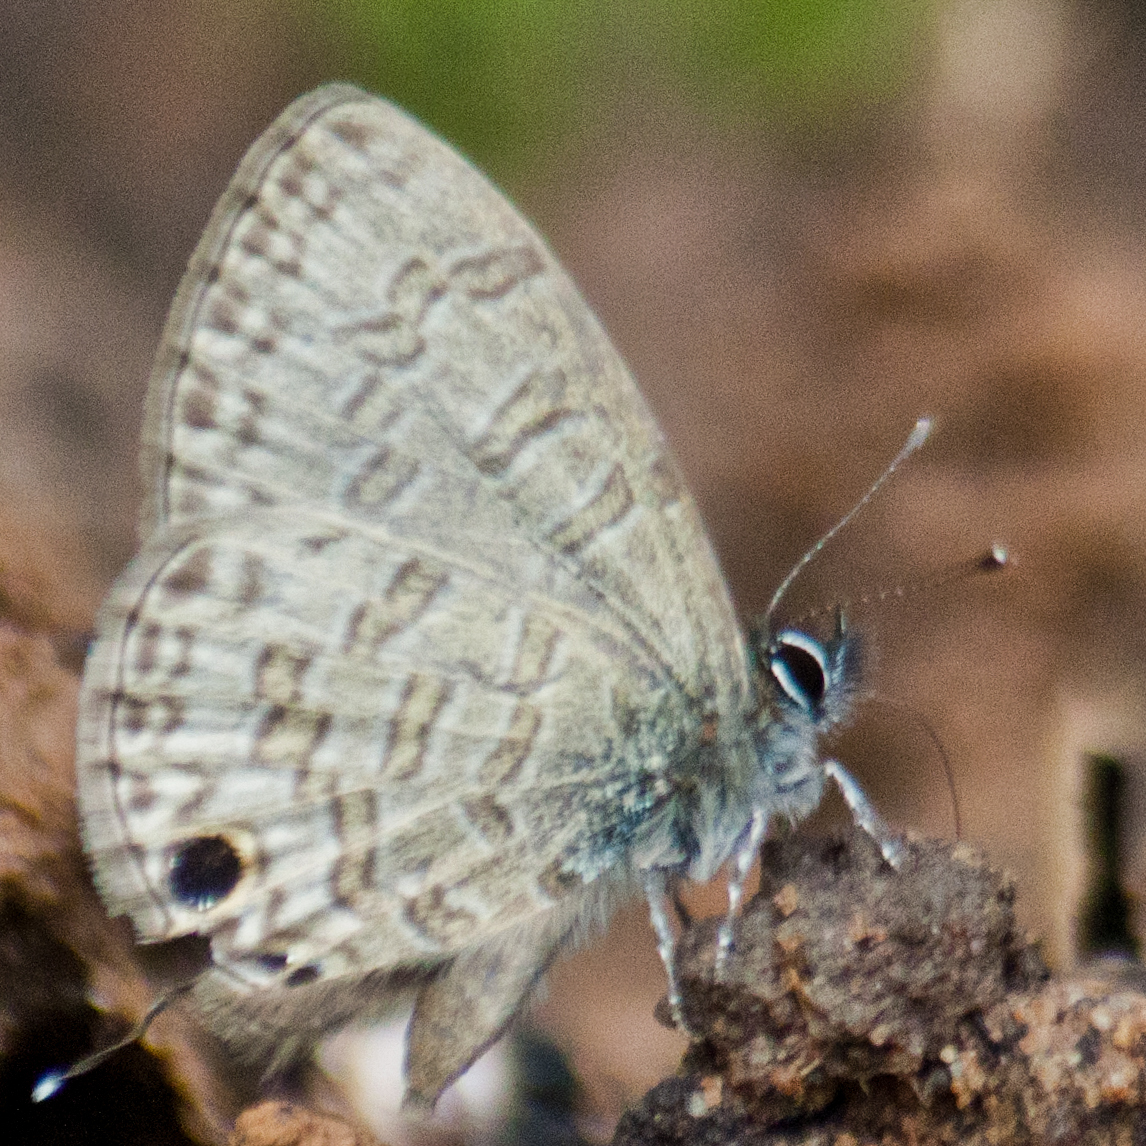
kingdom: Animalia
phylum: Arthropoda
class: Insecta
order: Lepidoptera
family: Lycaenidae
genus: Prosotas
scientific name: Prosotas nora
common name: Common line blue
